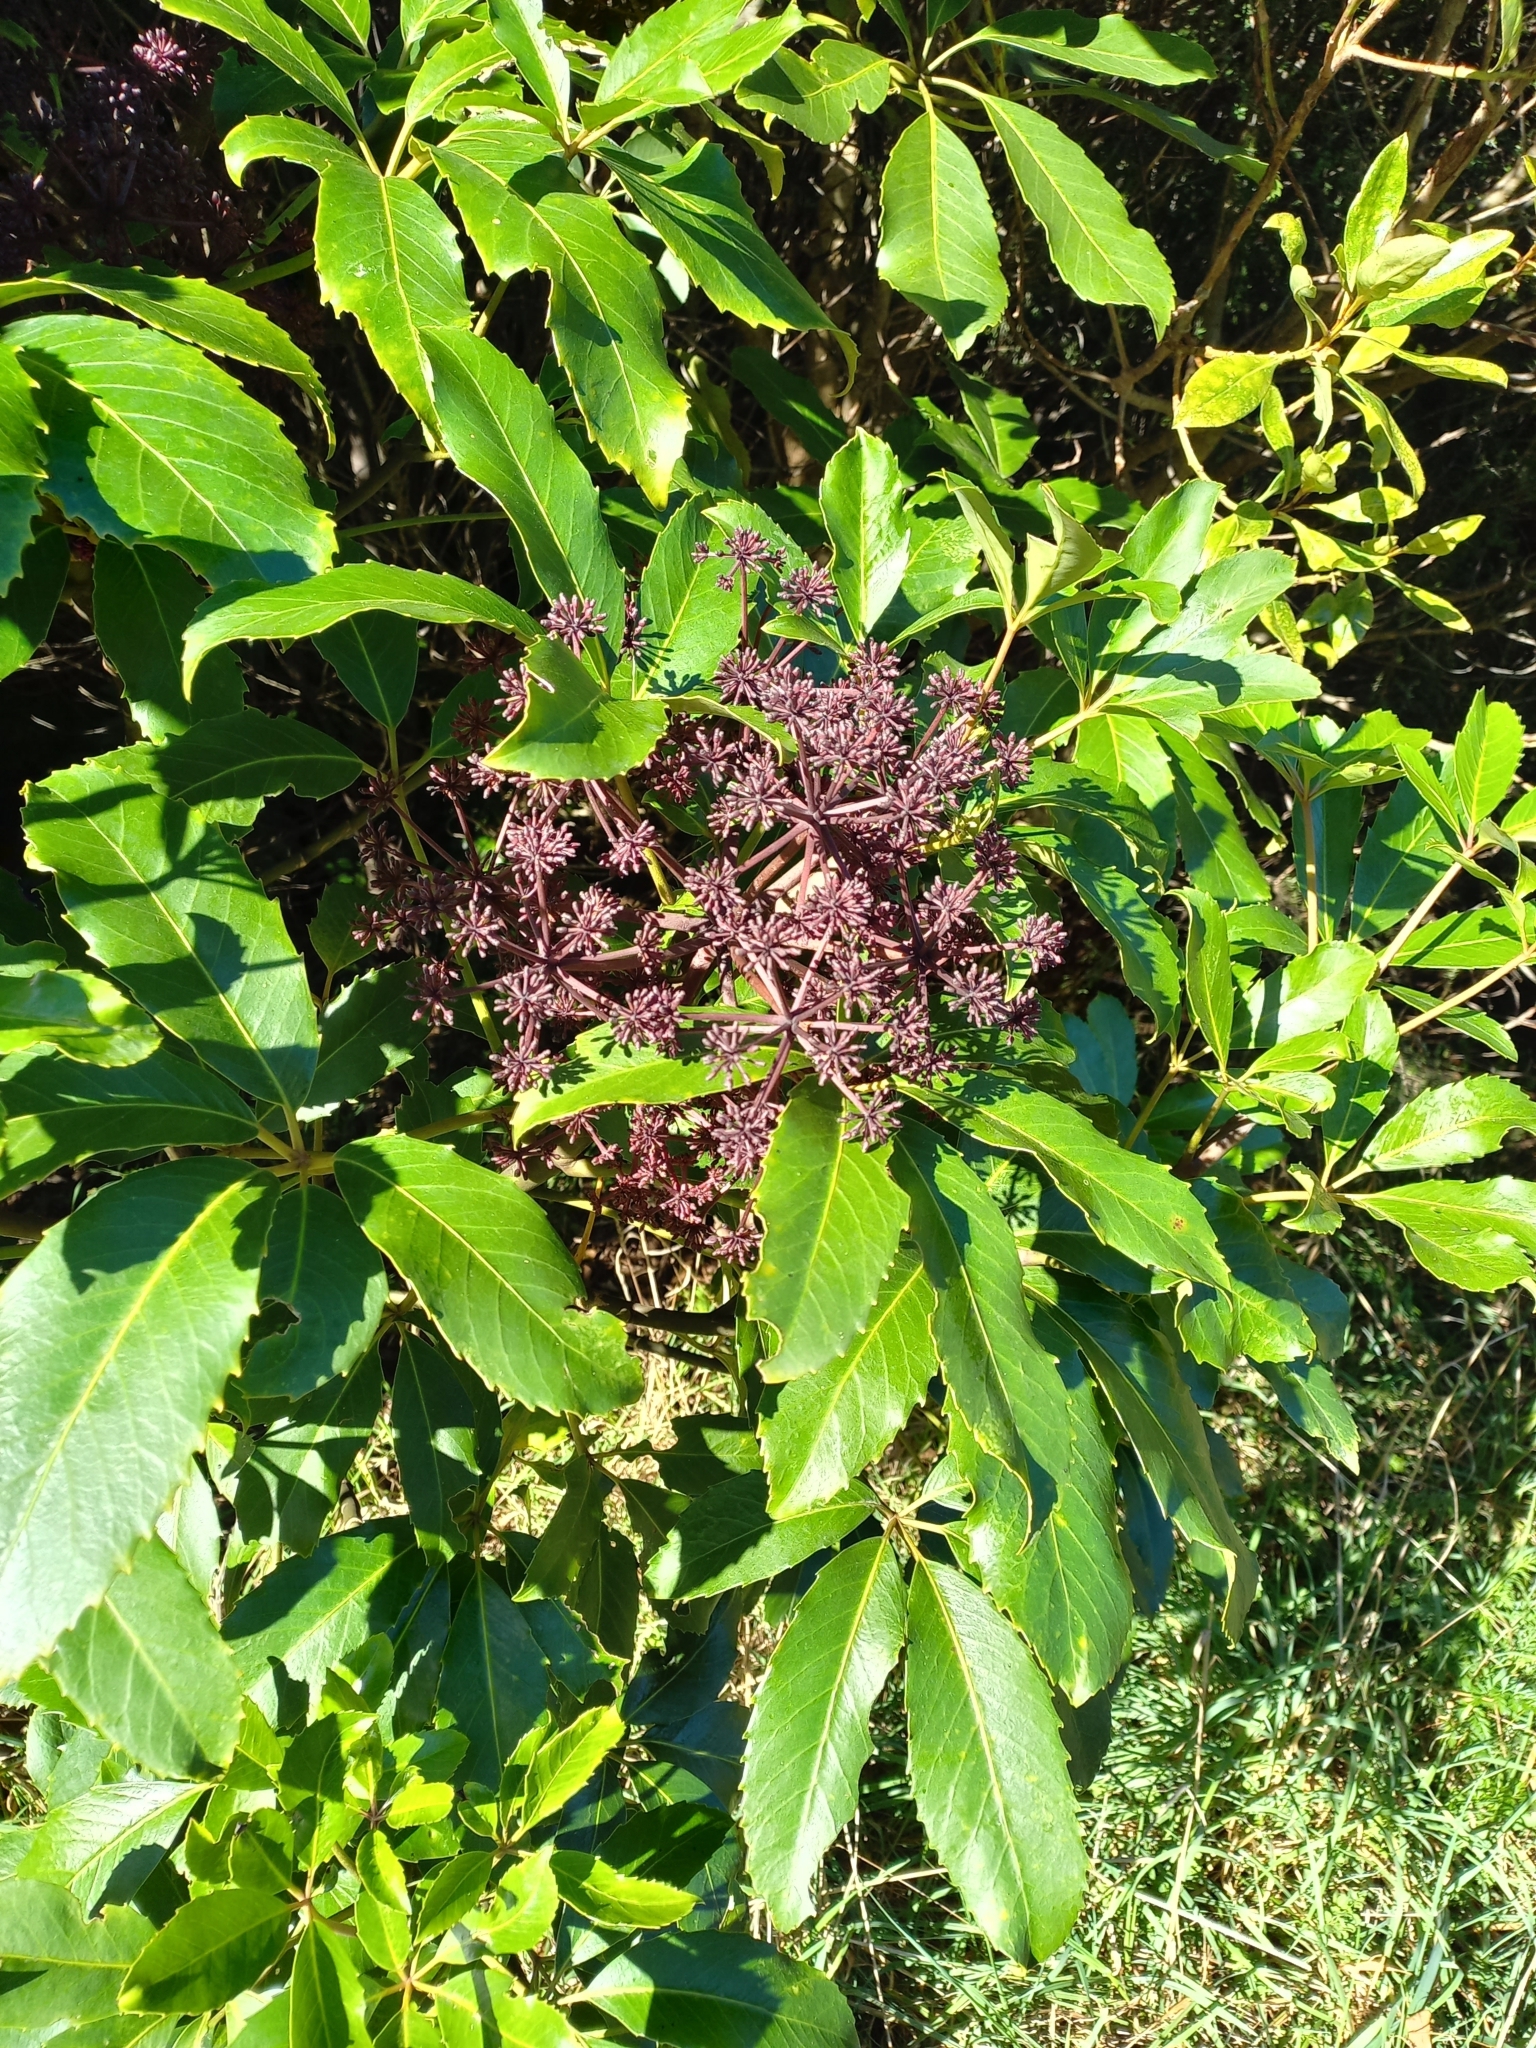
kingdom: Plantae
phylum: Tracheophyta
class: Magnoliopsida
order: Apiales
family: Araliaceae
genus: Neopanax
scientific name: Neopanax arboreus
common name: Five-fingers
